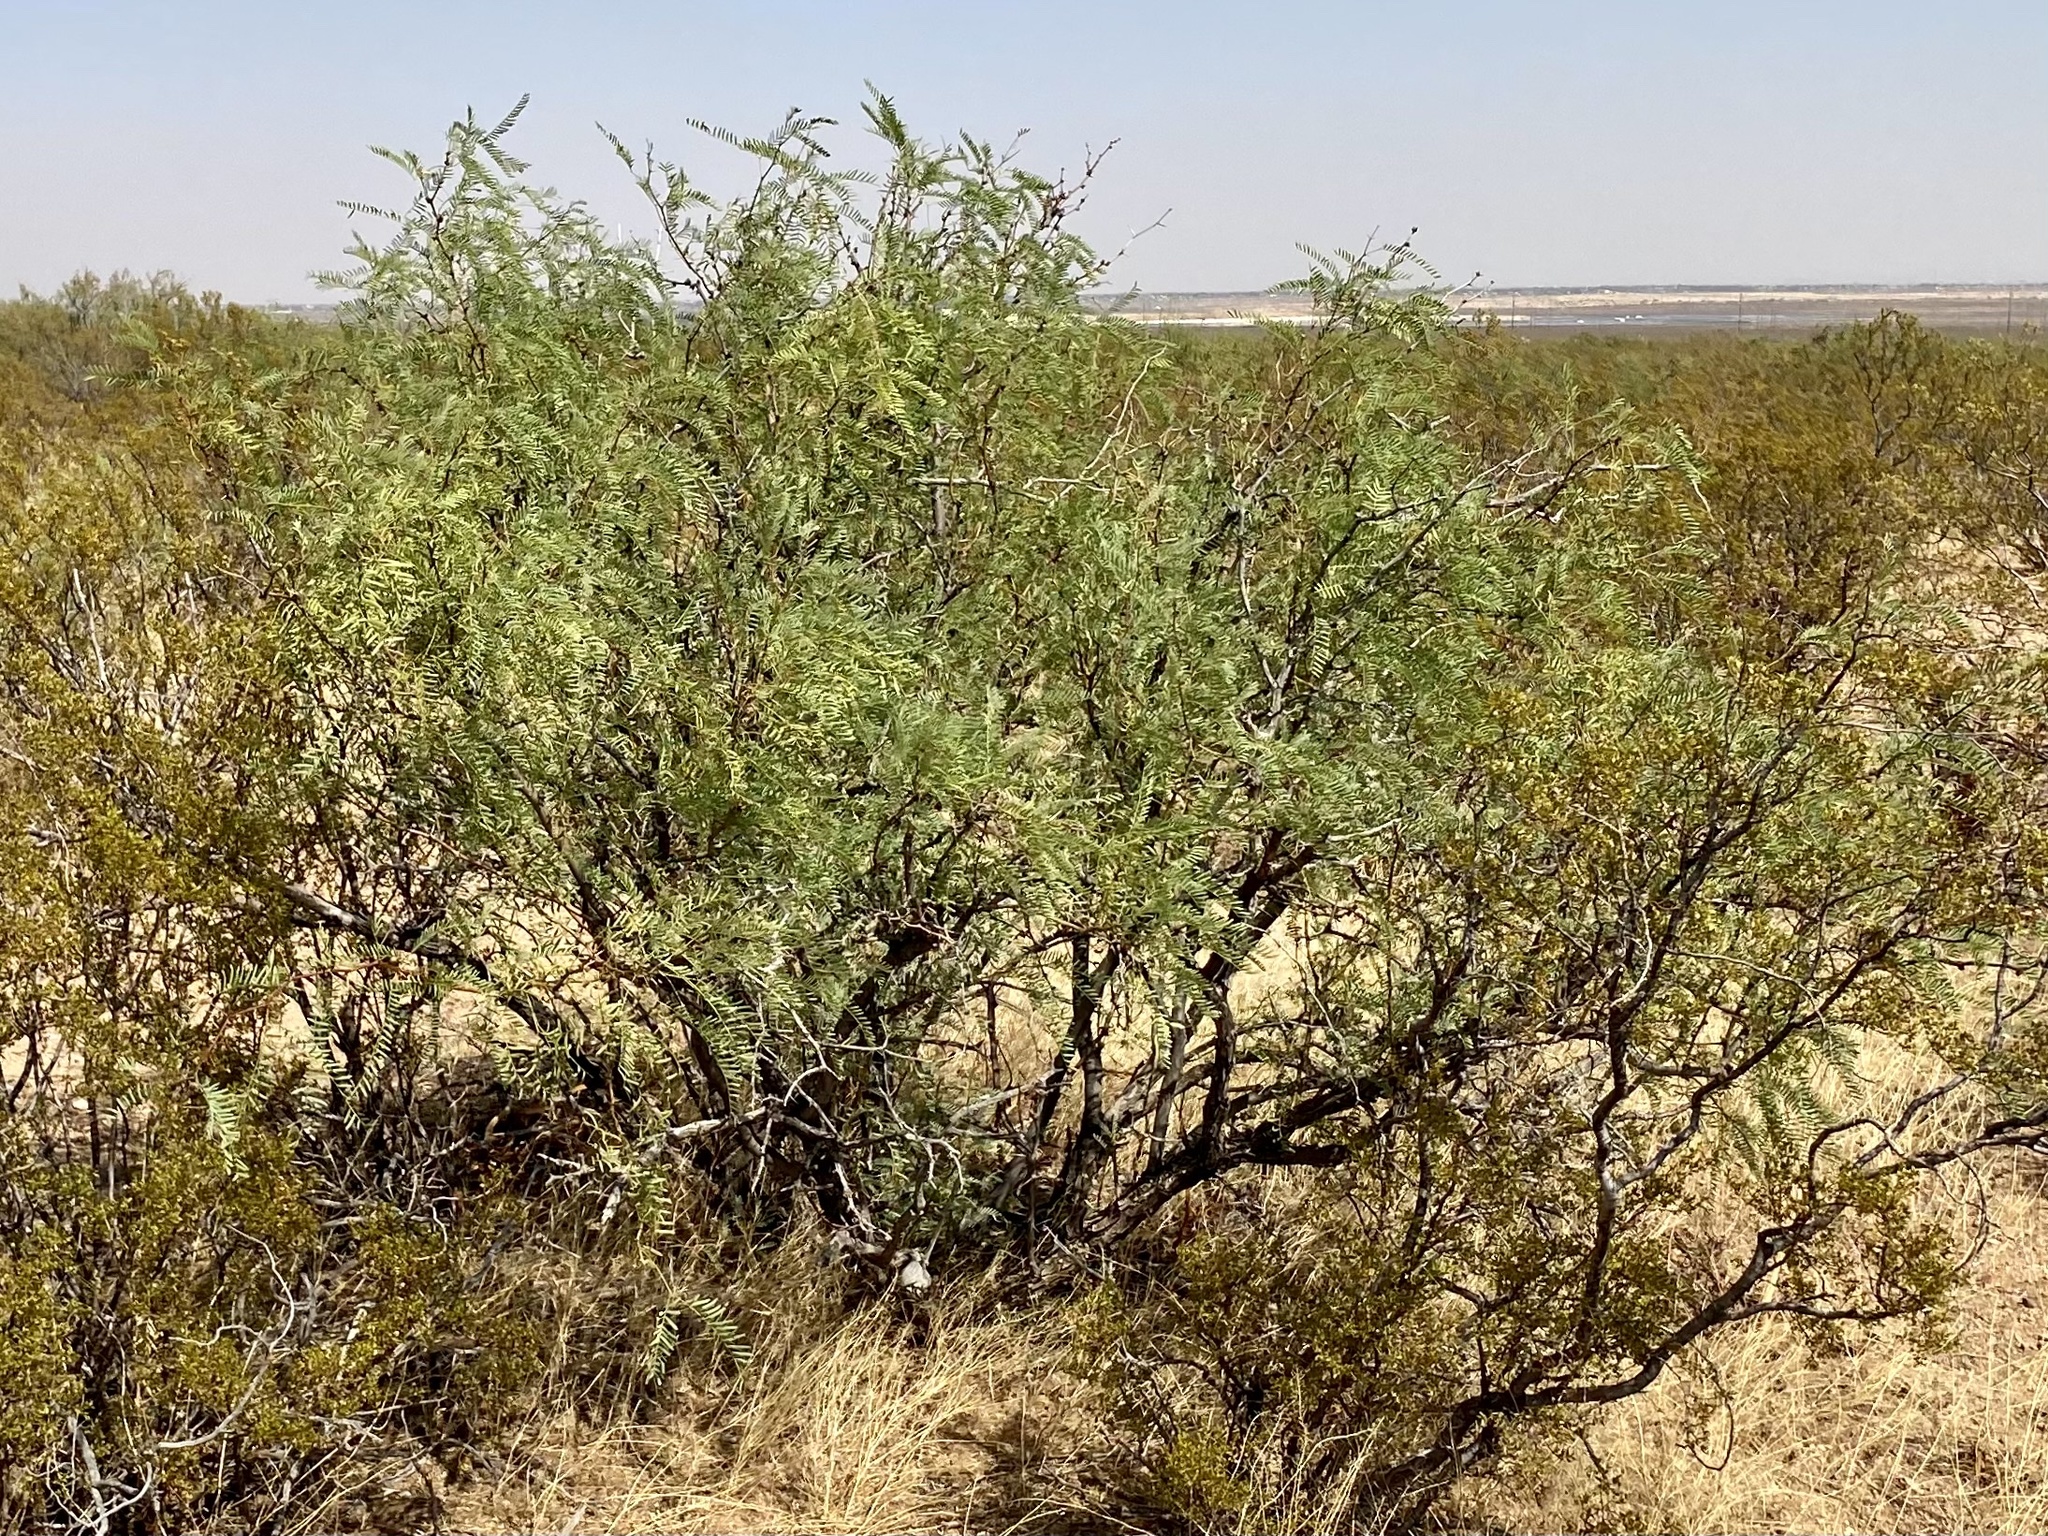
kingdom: Plantae
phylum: Tracheophyta
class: Magnoliopsida
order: Fabales
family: Fabaceae
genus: Prosopis
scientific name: Prosopis glandulosa
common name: Honey mesquite
